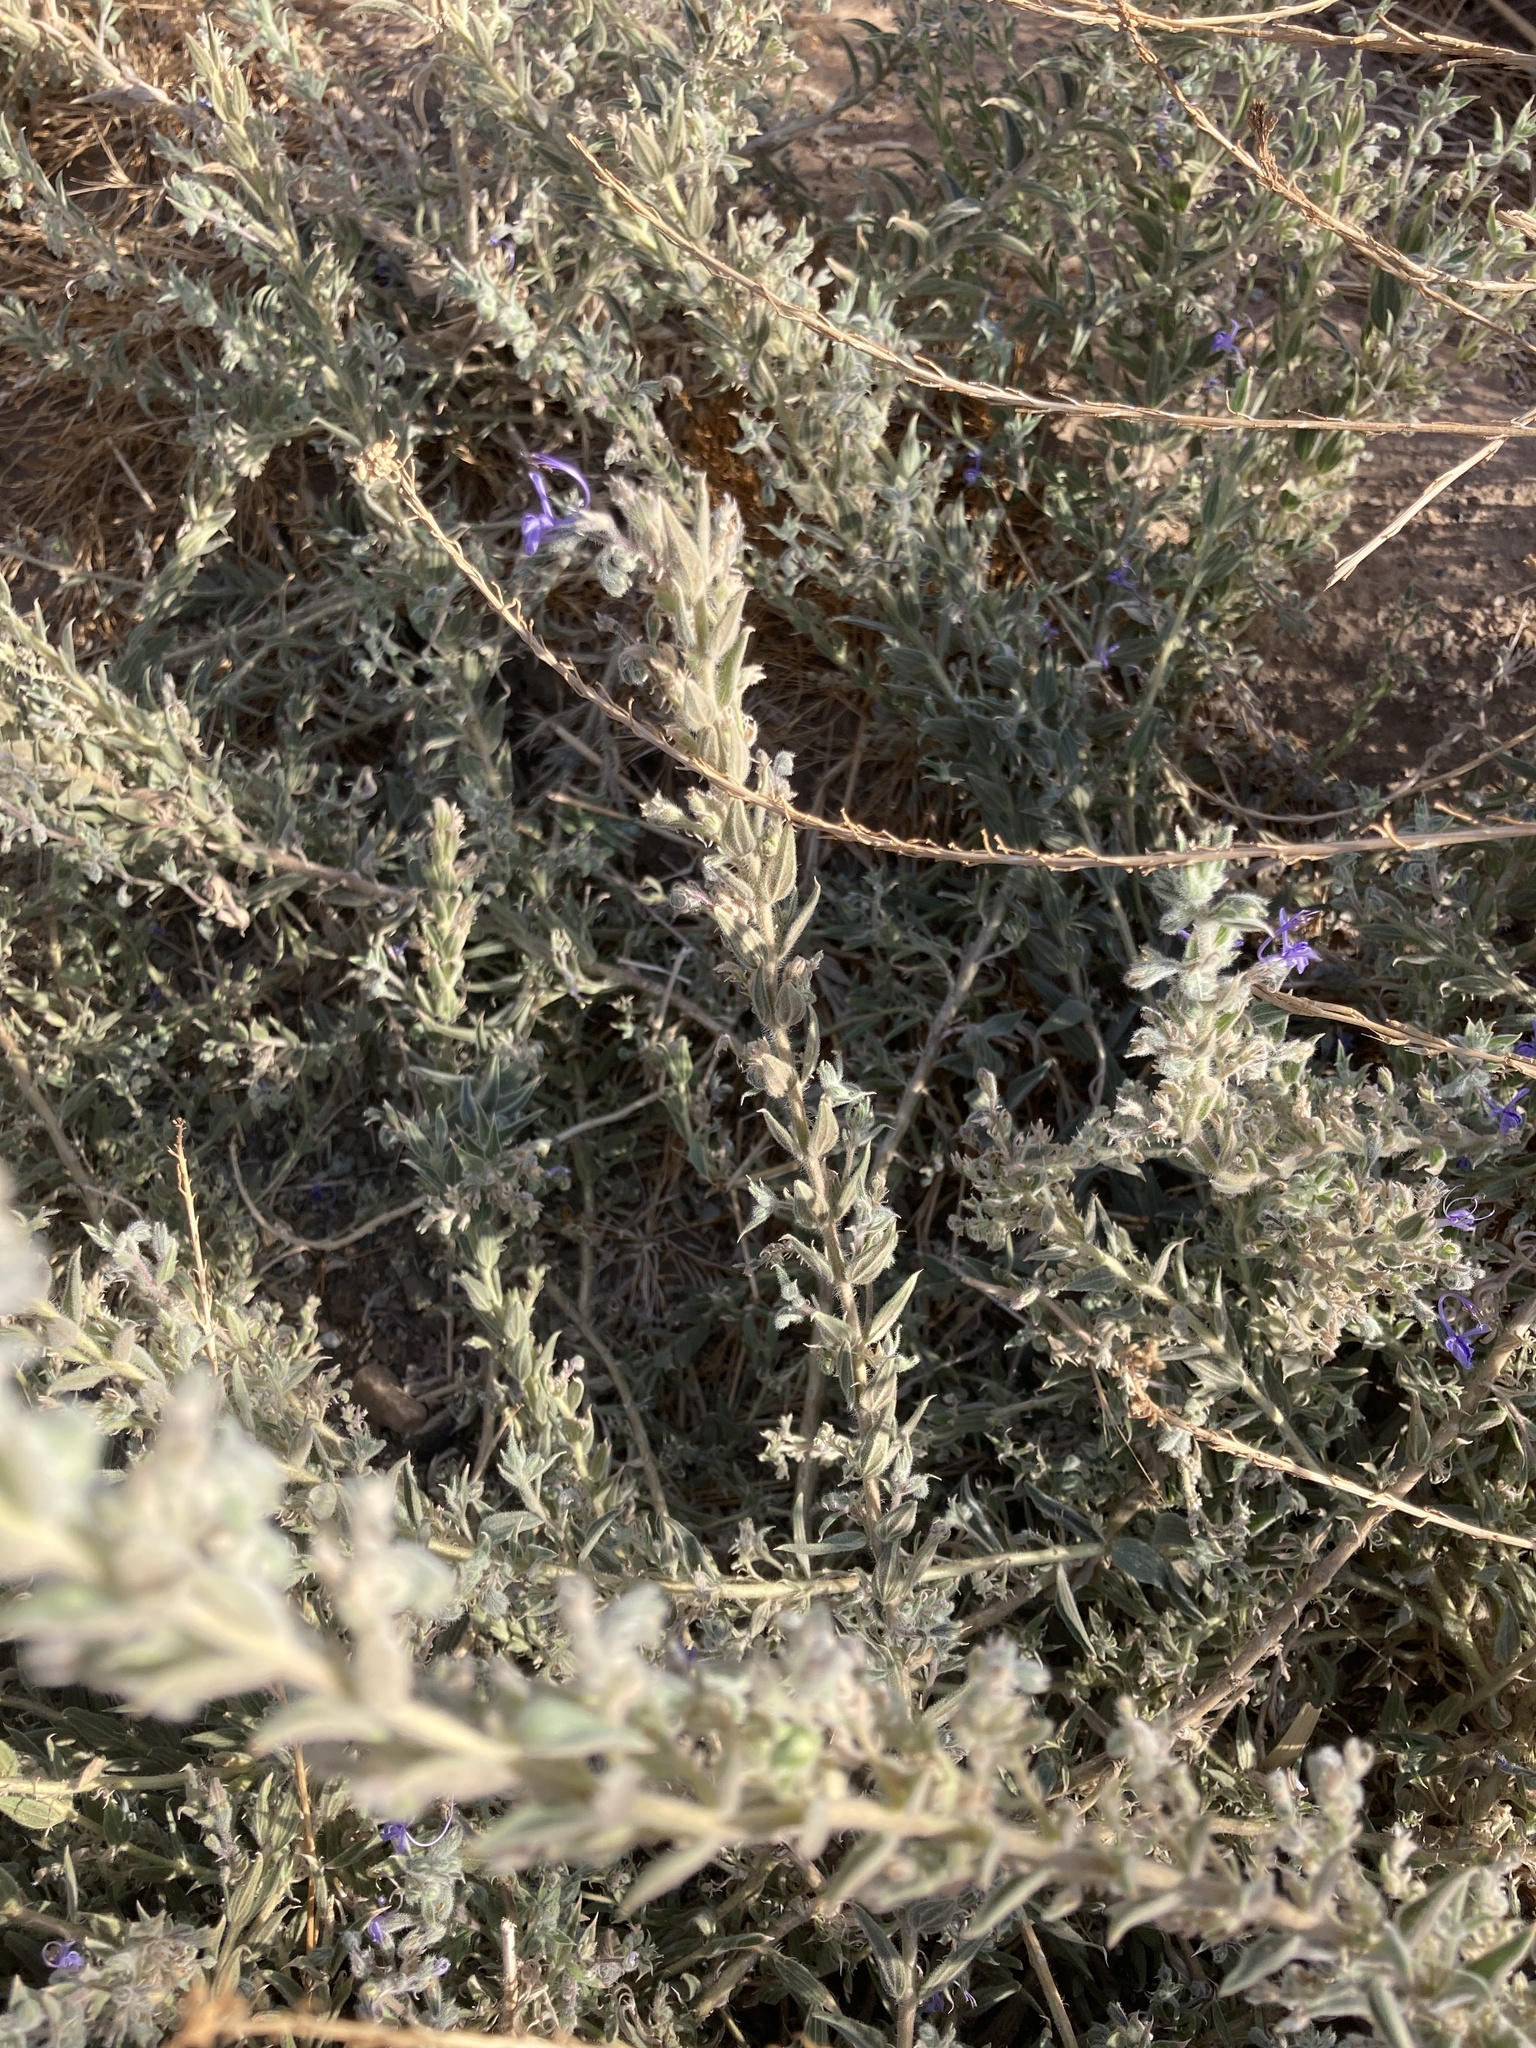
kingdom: Plantae
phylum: Tracheophyta
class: Magnoliopsida
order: Lamiales
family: Lamiaceae
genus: Trichostema
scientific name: Trichostema lanceolatum
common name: Vinegar-weed
